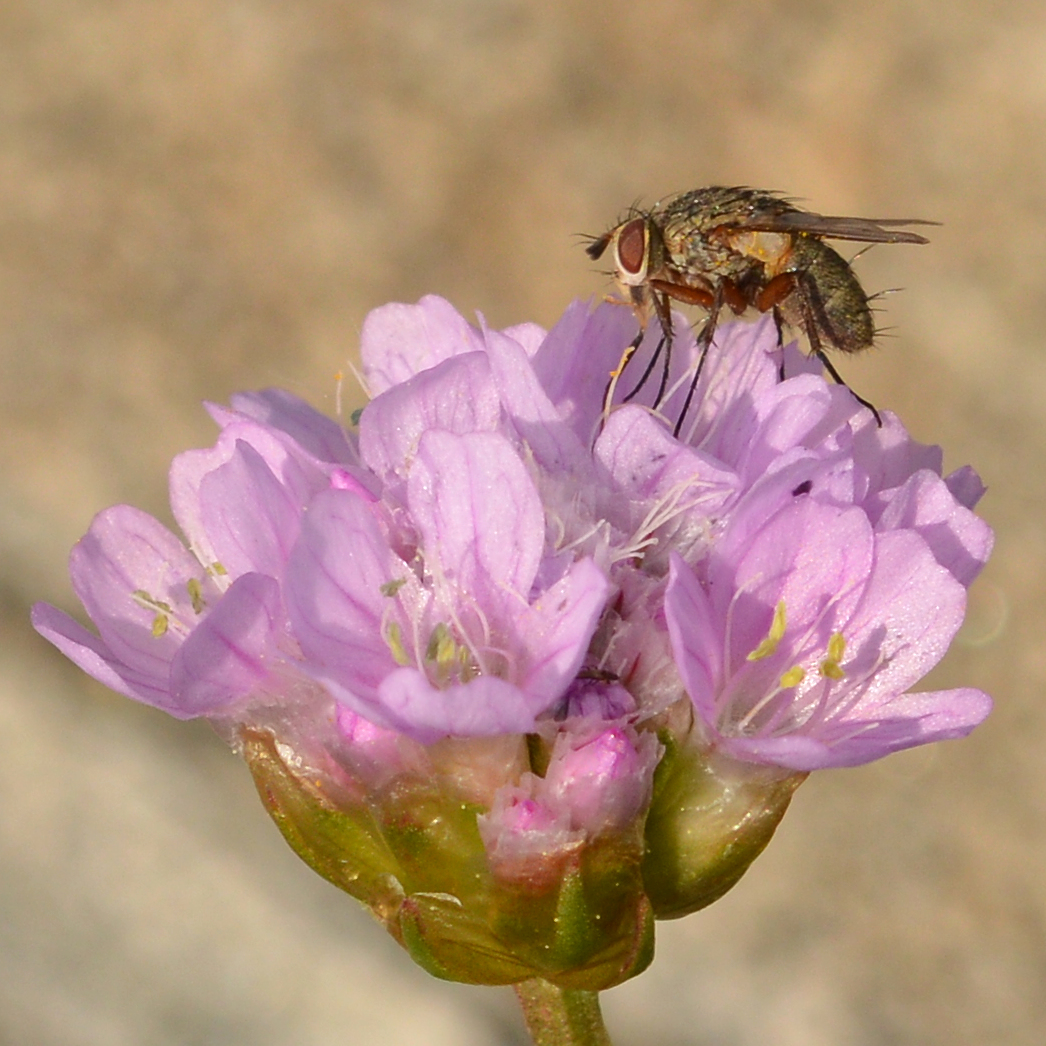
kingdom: Plantae
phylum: Tracheophyta
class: Magnoliopsida
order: Caryophyllales
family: Plumbaginaceae
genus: Armeria
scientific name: Armeria maritima
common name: Thrift
